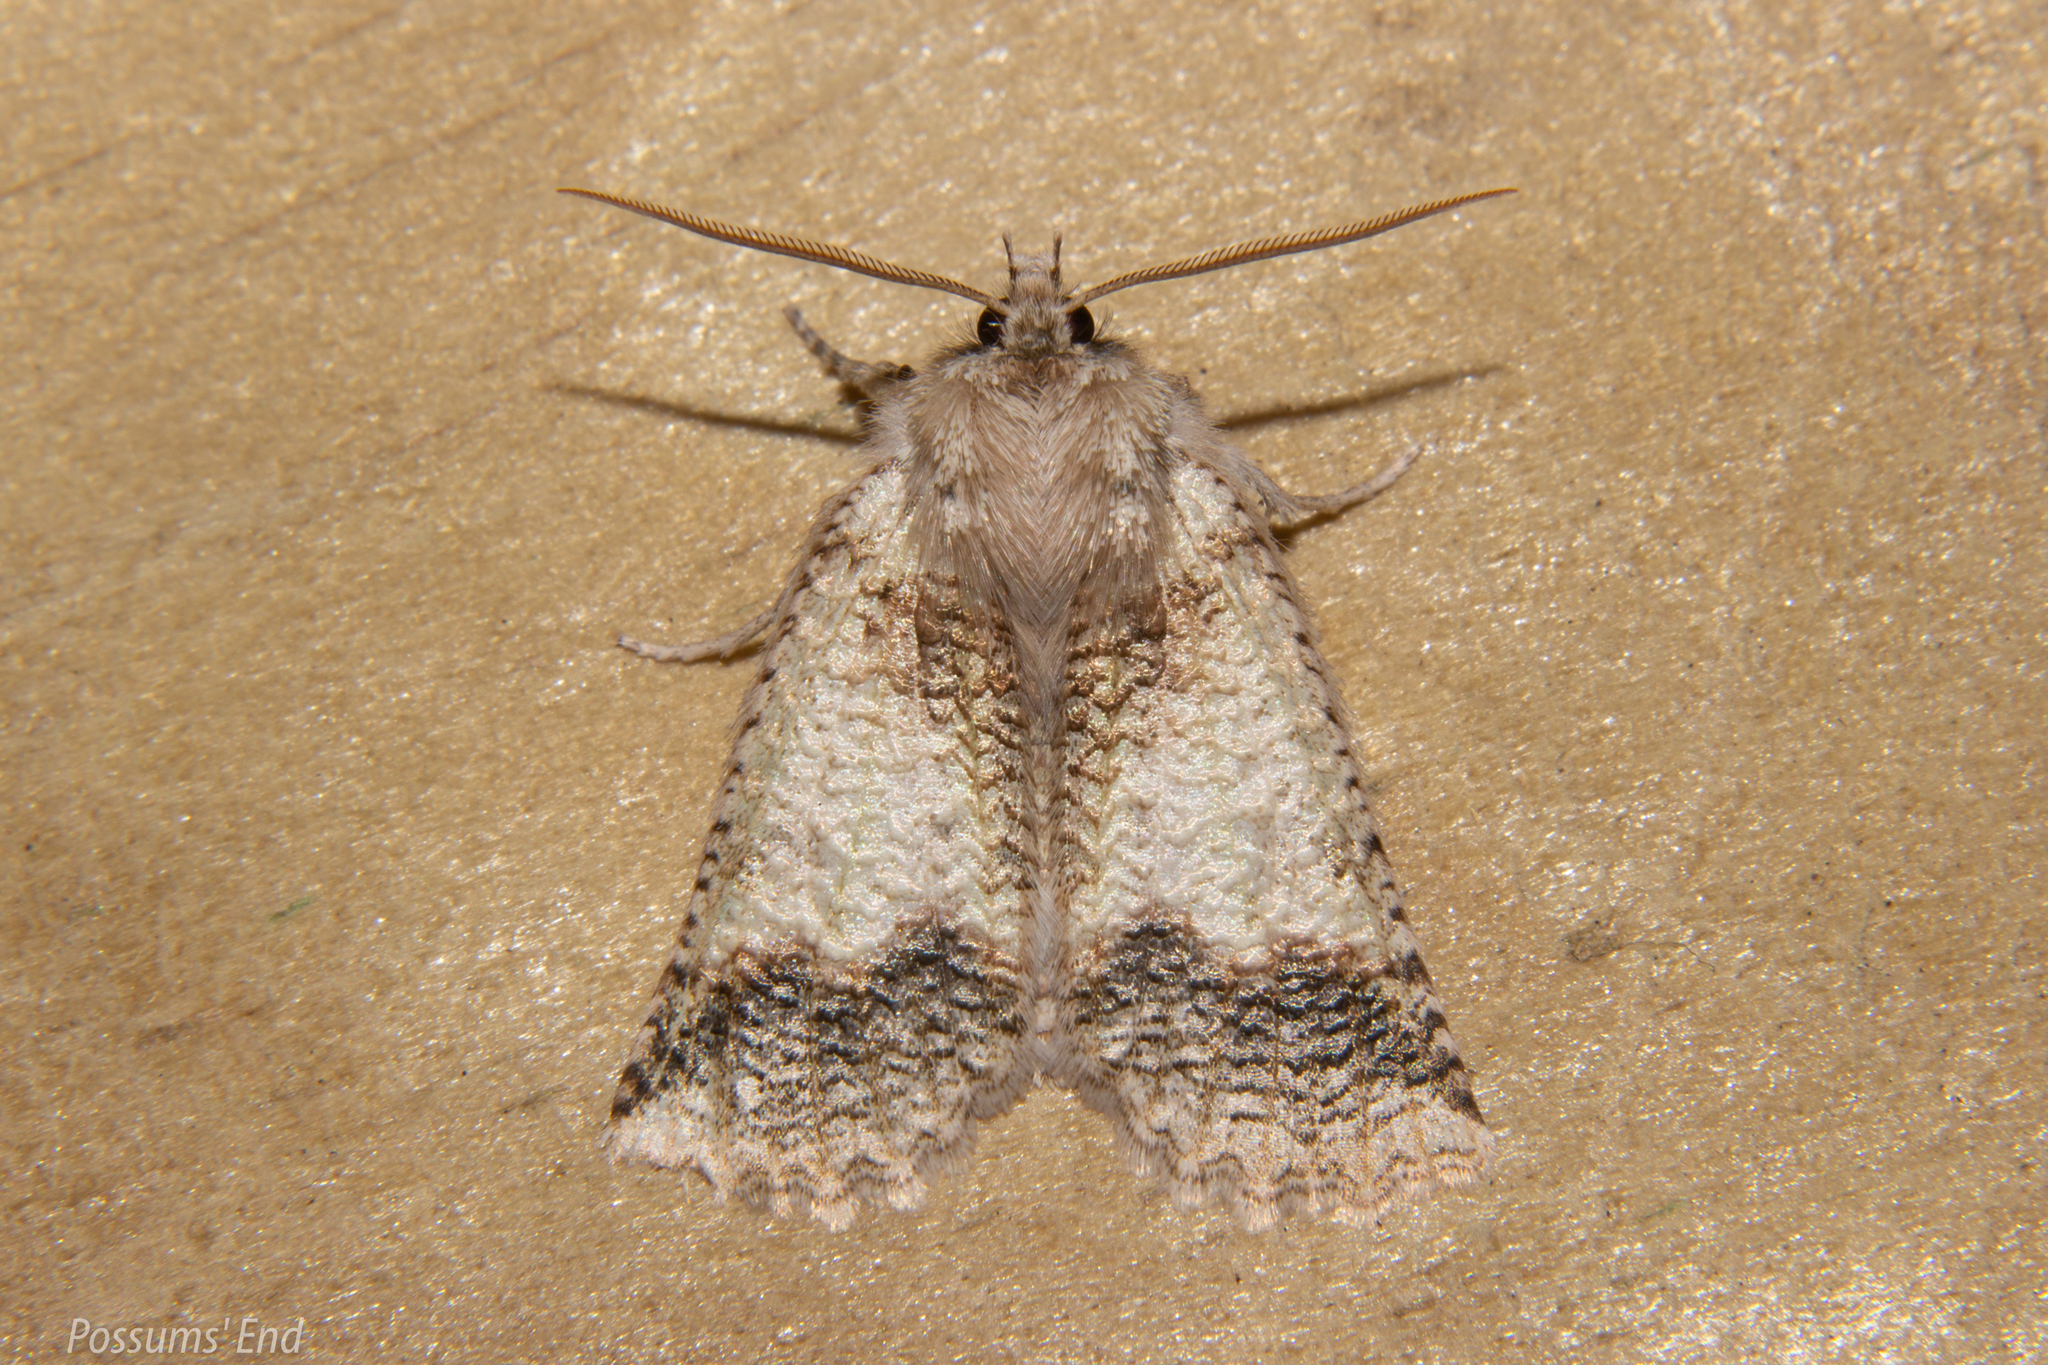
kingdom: Animalia
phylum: Arthropoda
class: Insecta
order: Lepidoptera
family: Geometridae
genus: Declana
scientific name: Declana floccosa
